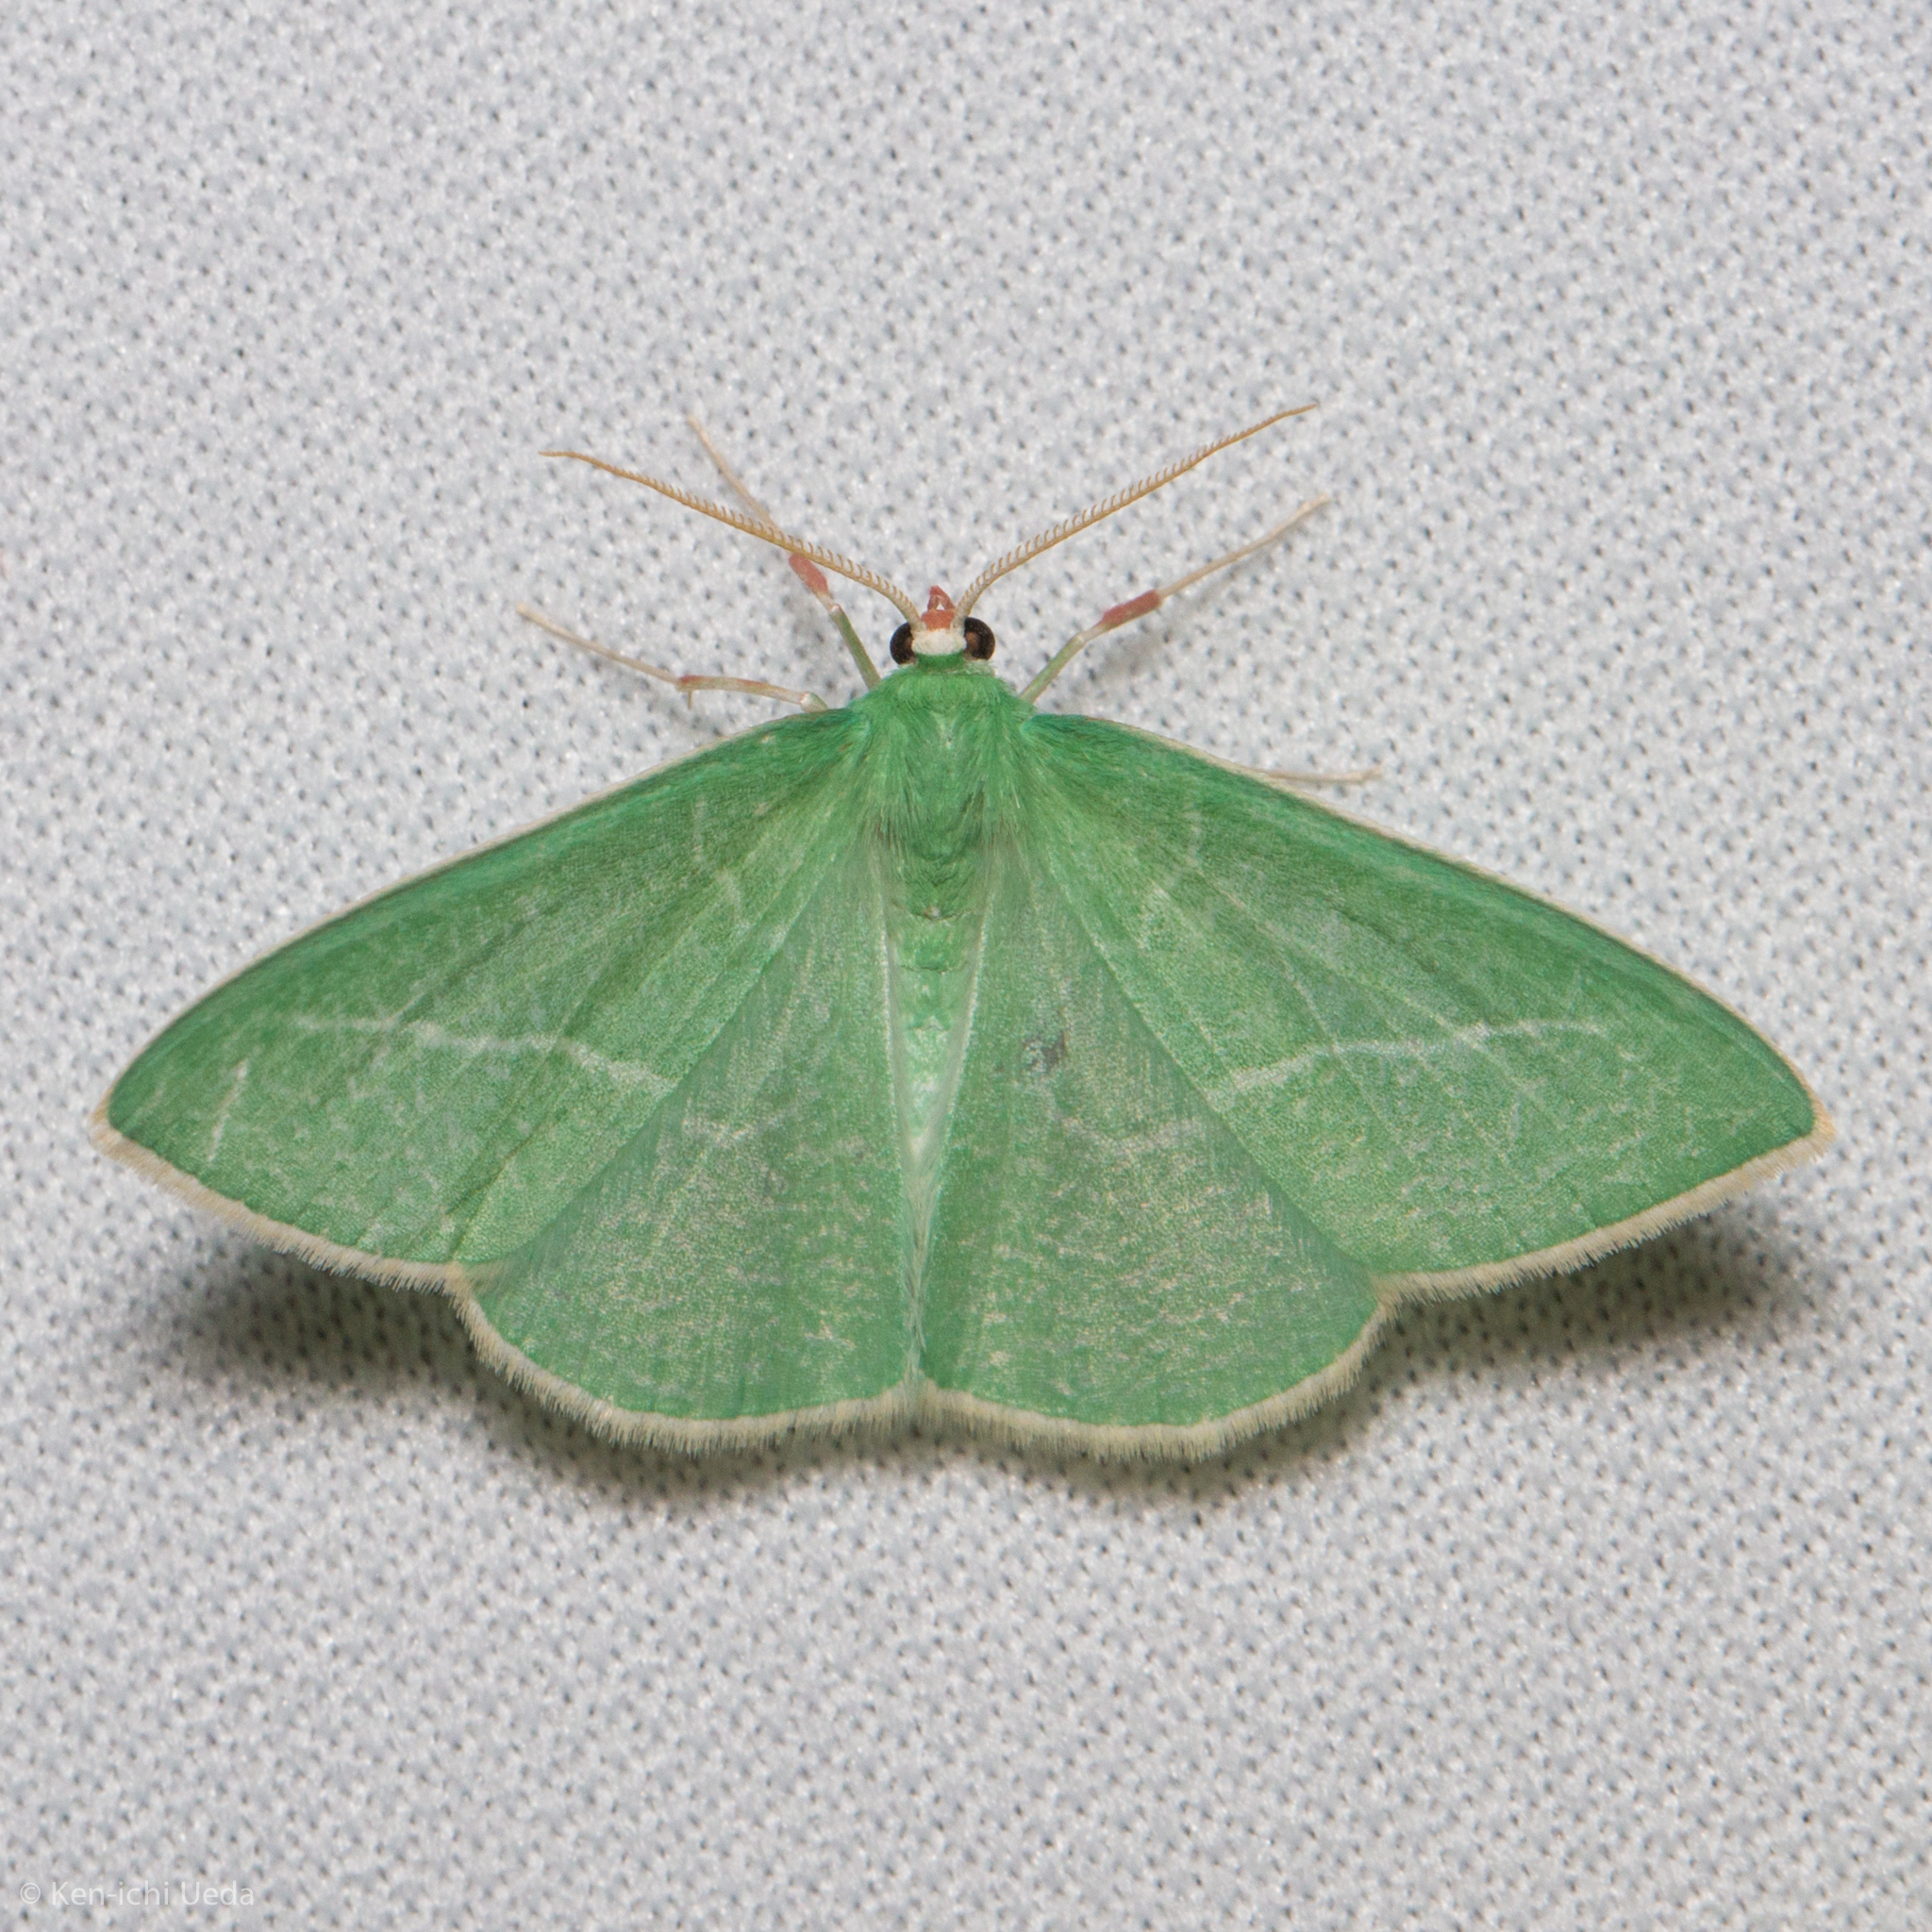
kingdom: Animalia
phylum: Arthropoda
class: Insecta
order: Lepidoptera
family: Geometridae
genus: Nemoria
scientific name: Nemoria unitaria
